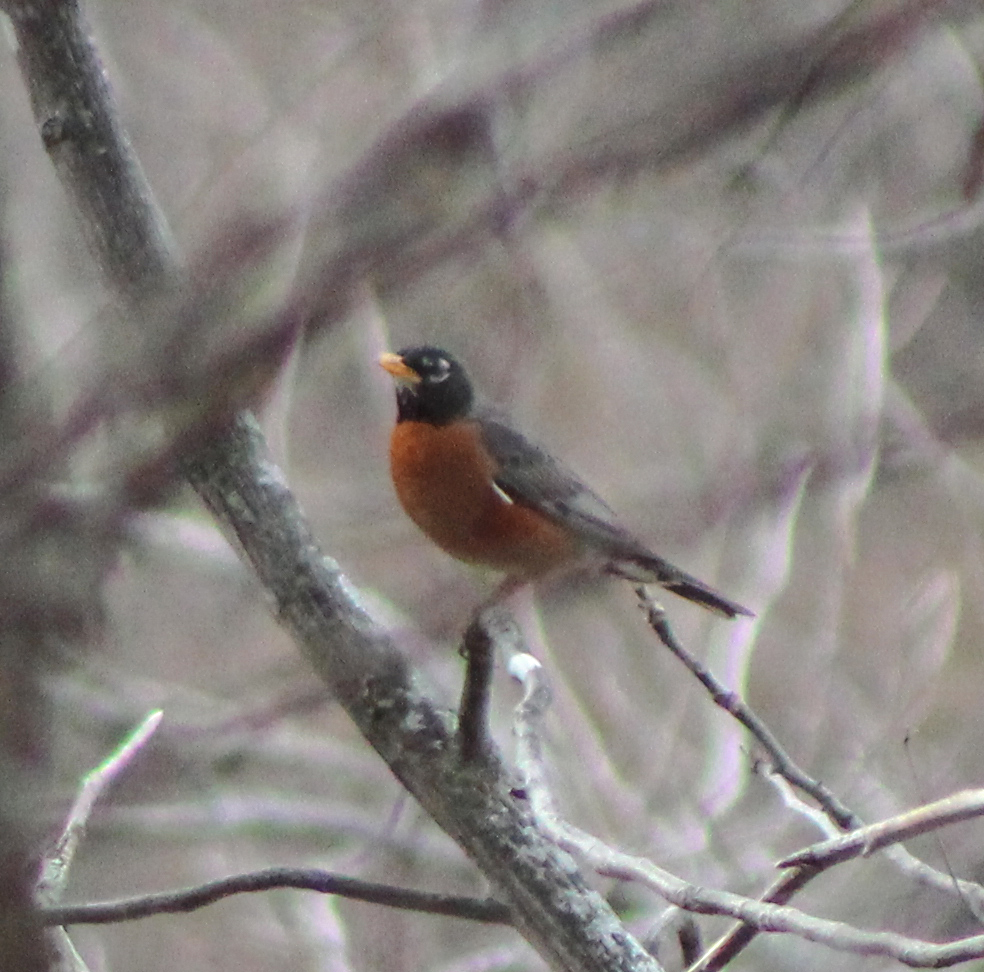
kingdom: Animalia
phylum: Chordata
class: Aves
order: Passeriformes
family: Turdidae
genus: Turdus
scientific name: Turdus migratorius
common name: American robin
